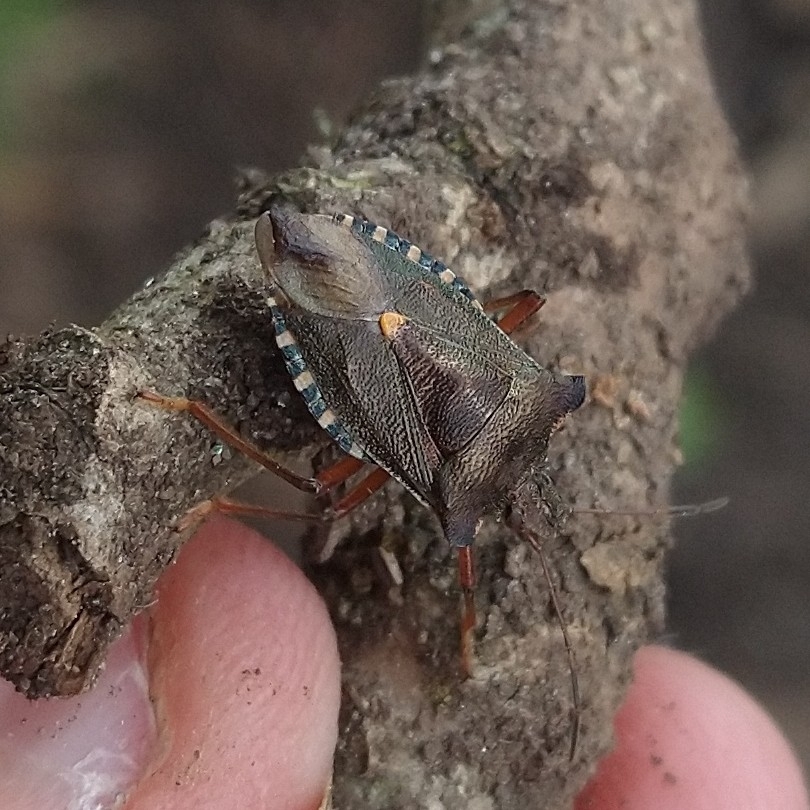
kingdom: Animalia
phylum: Arthropoda
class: Insecta
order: Hemiptera
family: Pentatomidae
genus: Pentatoma
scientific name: Pentatoma rufipes
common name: Forest bug
